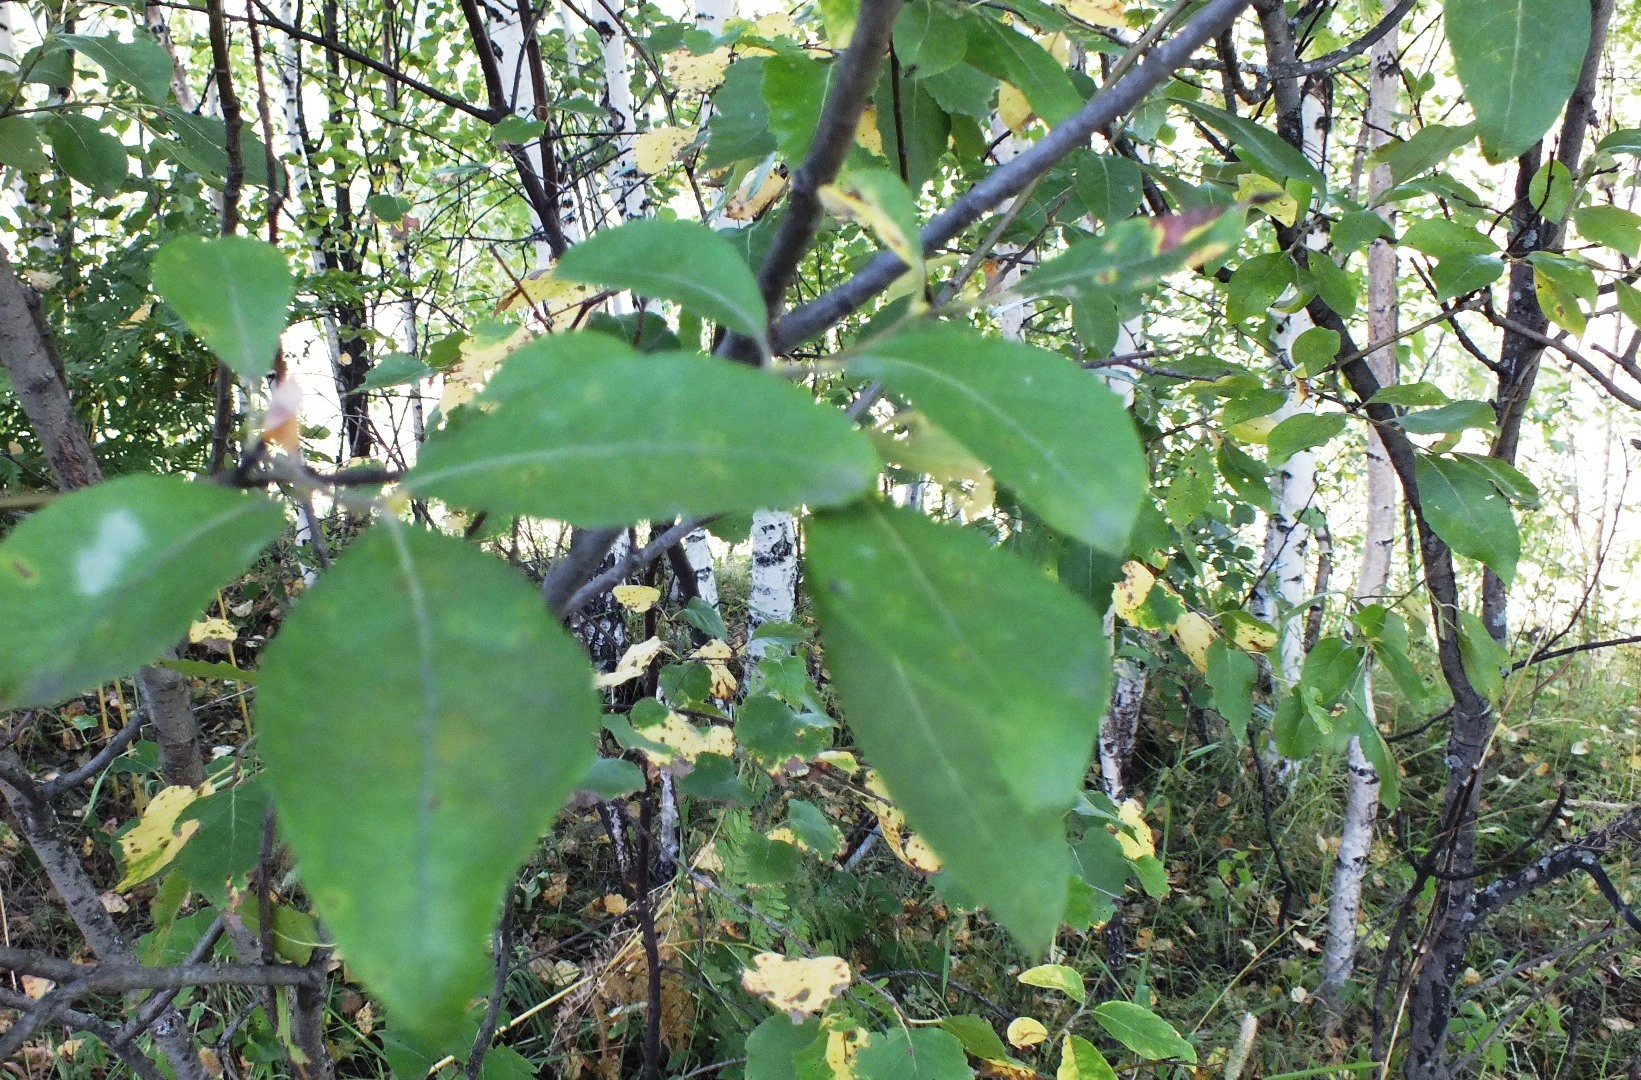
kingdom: Plantae
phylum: Tracheophyta
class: Magnoliopsida
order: Malpighiales
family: Salicaceae
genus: Salix
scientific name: Salix caprea
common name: Goat willow
